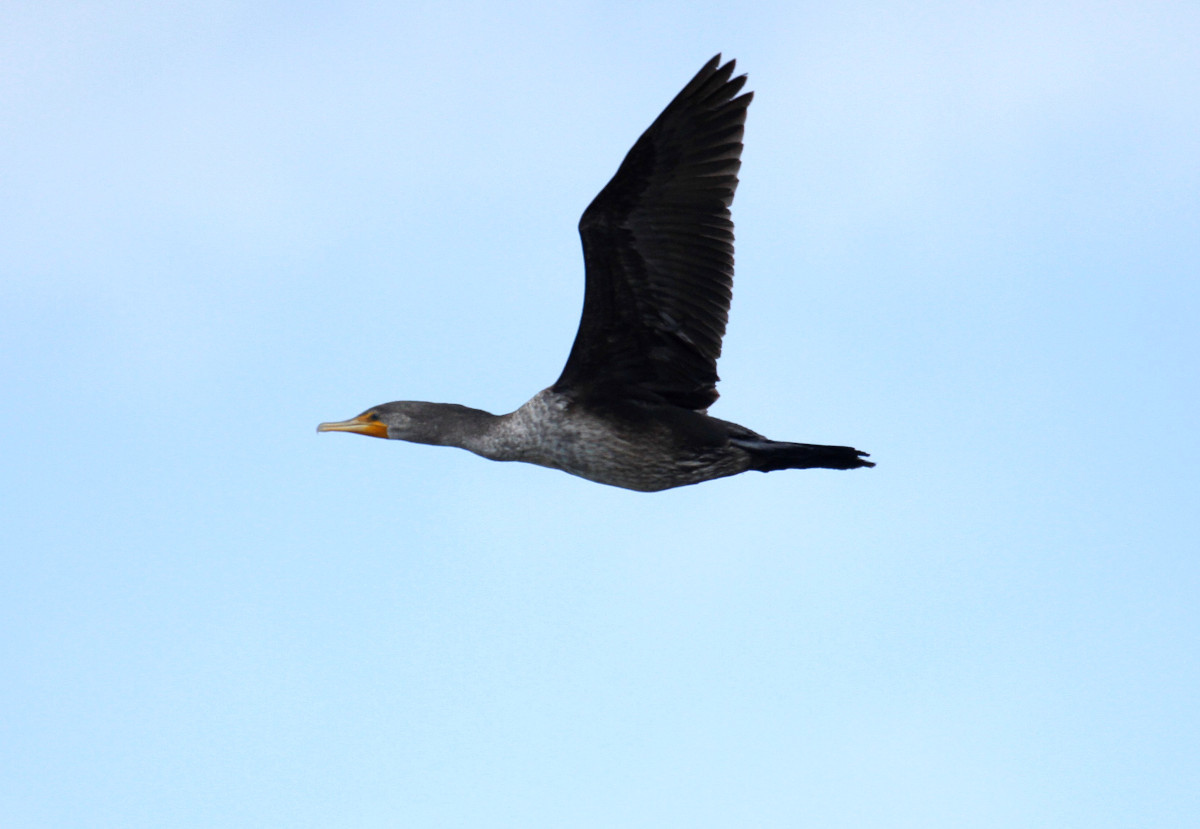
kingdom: Animalia
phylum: Chordata
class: Aves
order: Suliformes
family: Phalacrocoracidae
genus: Phalacrocorax
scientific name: Phalacrocorax auritus
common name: Double-crested cormorant
